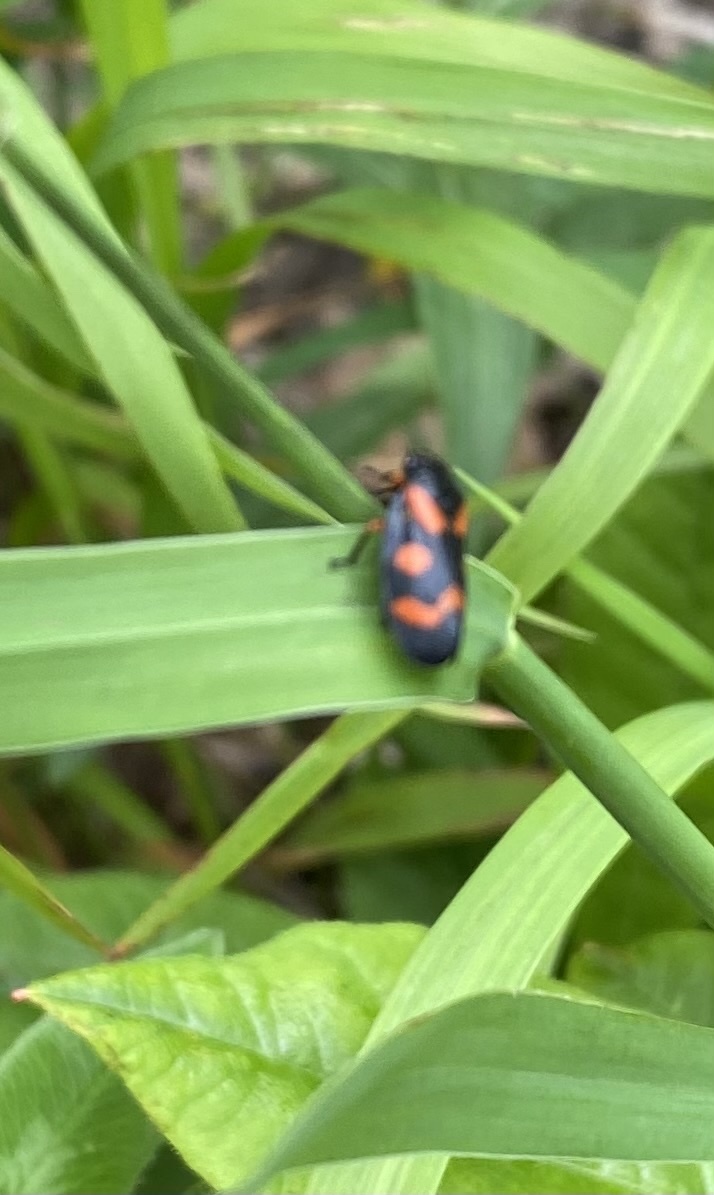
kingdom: Animalia
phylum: Arthropoda
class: Insecta
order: Hemiptera
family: Cercopidae
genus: Cercopis
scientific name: Cercopis intermedia
